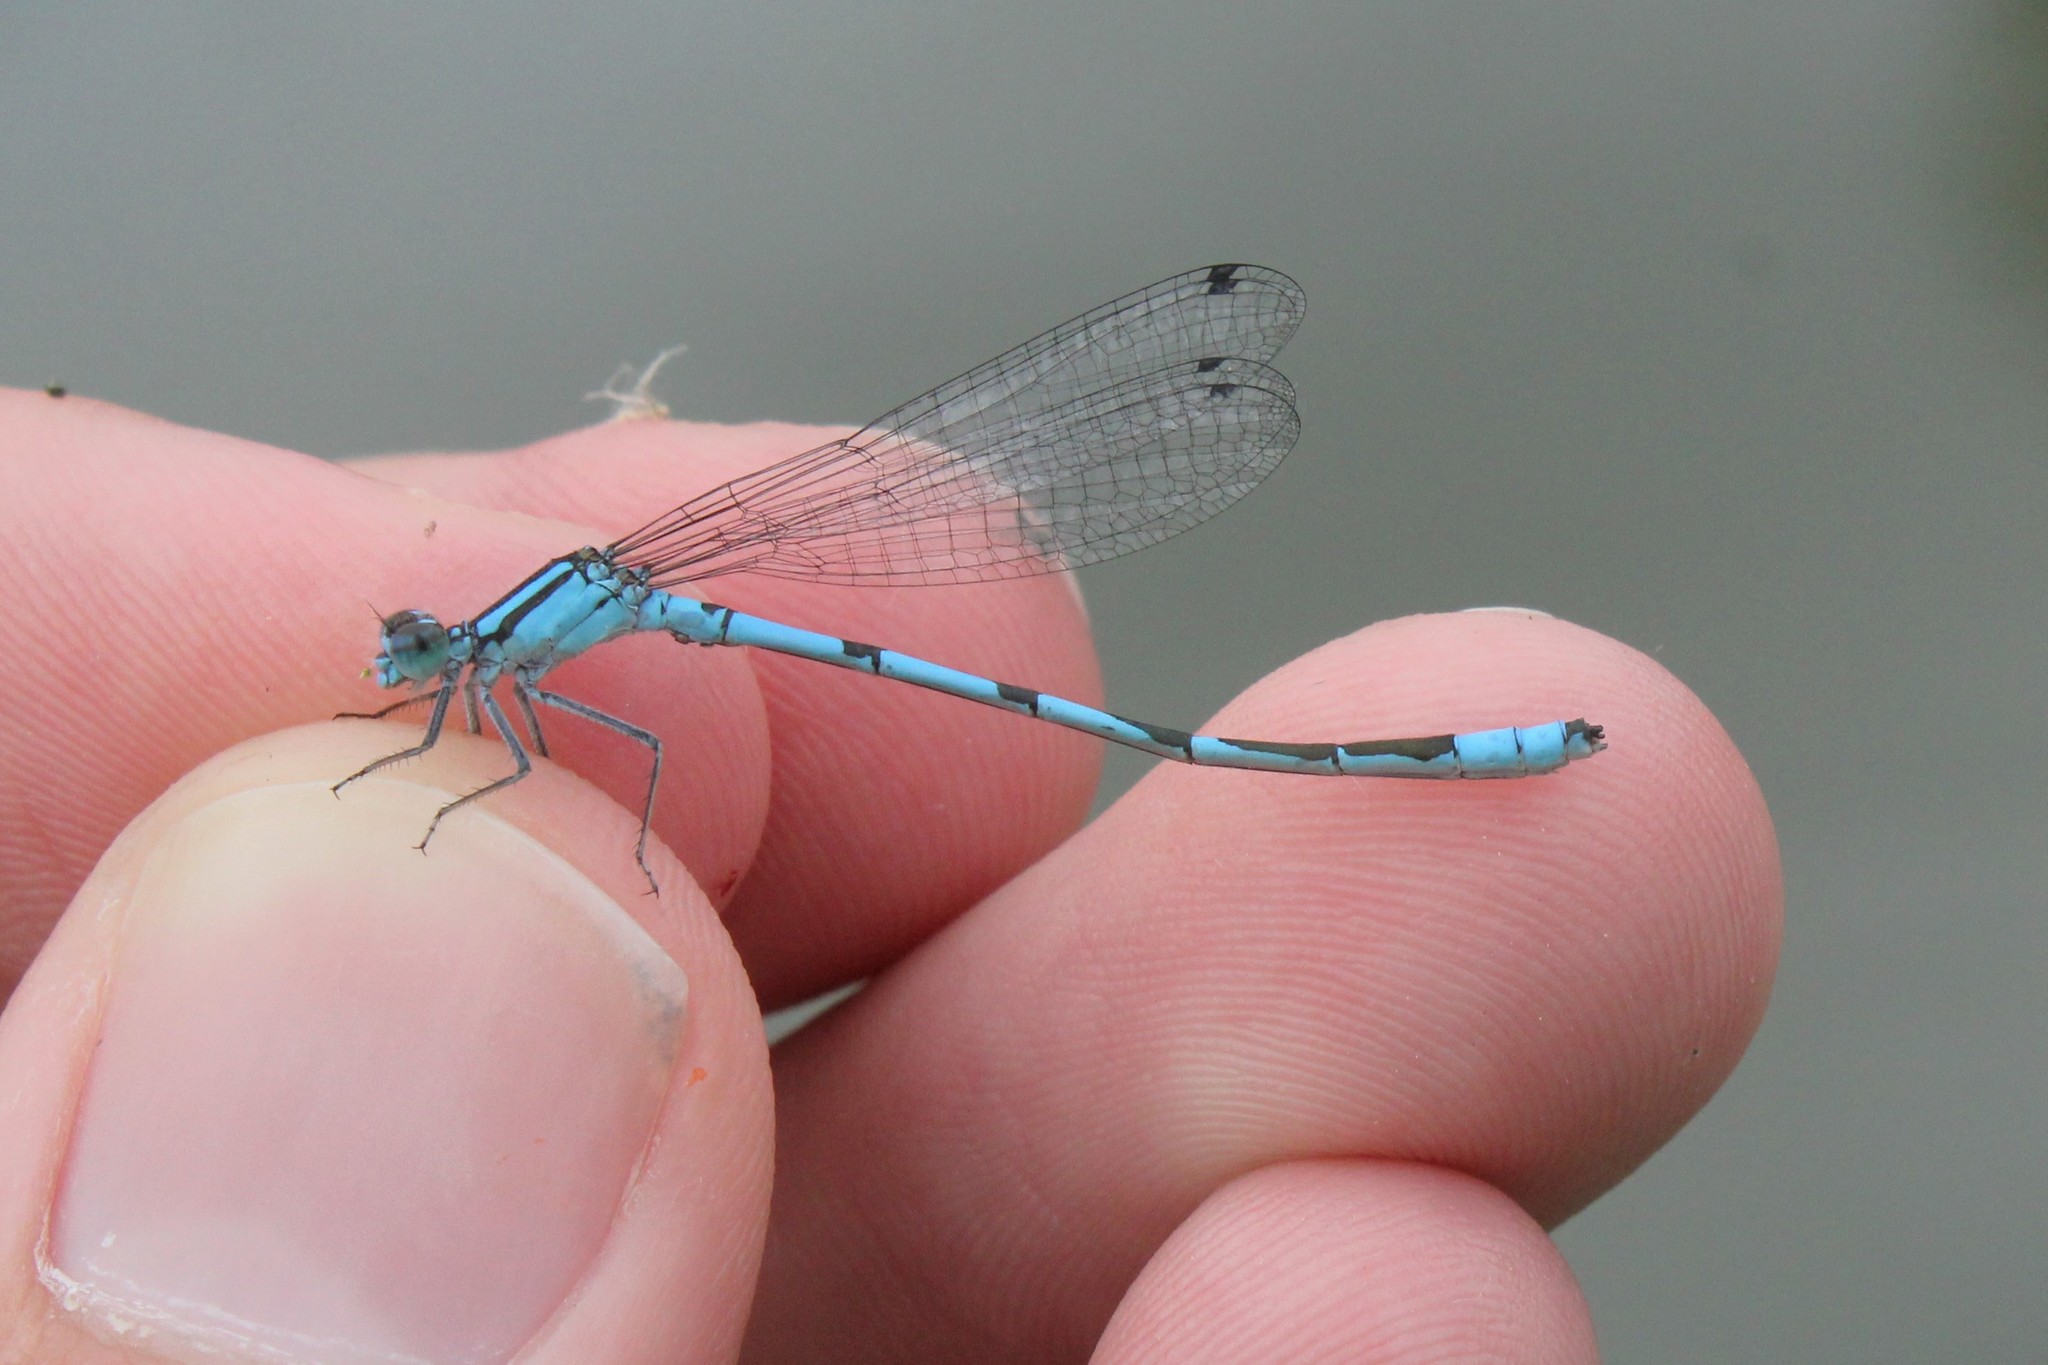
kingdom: Animalia
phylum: Arthropoda
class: Insecta
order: Odonata
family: Coenagrionidae
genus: Enallagma
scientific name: Enallagma ebrium
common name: Marsh bluet
